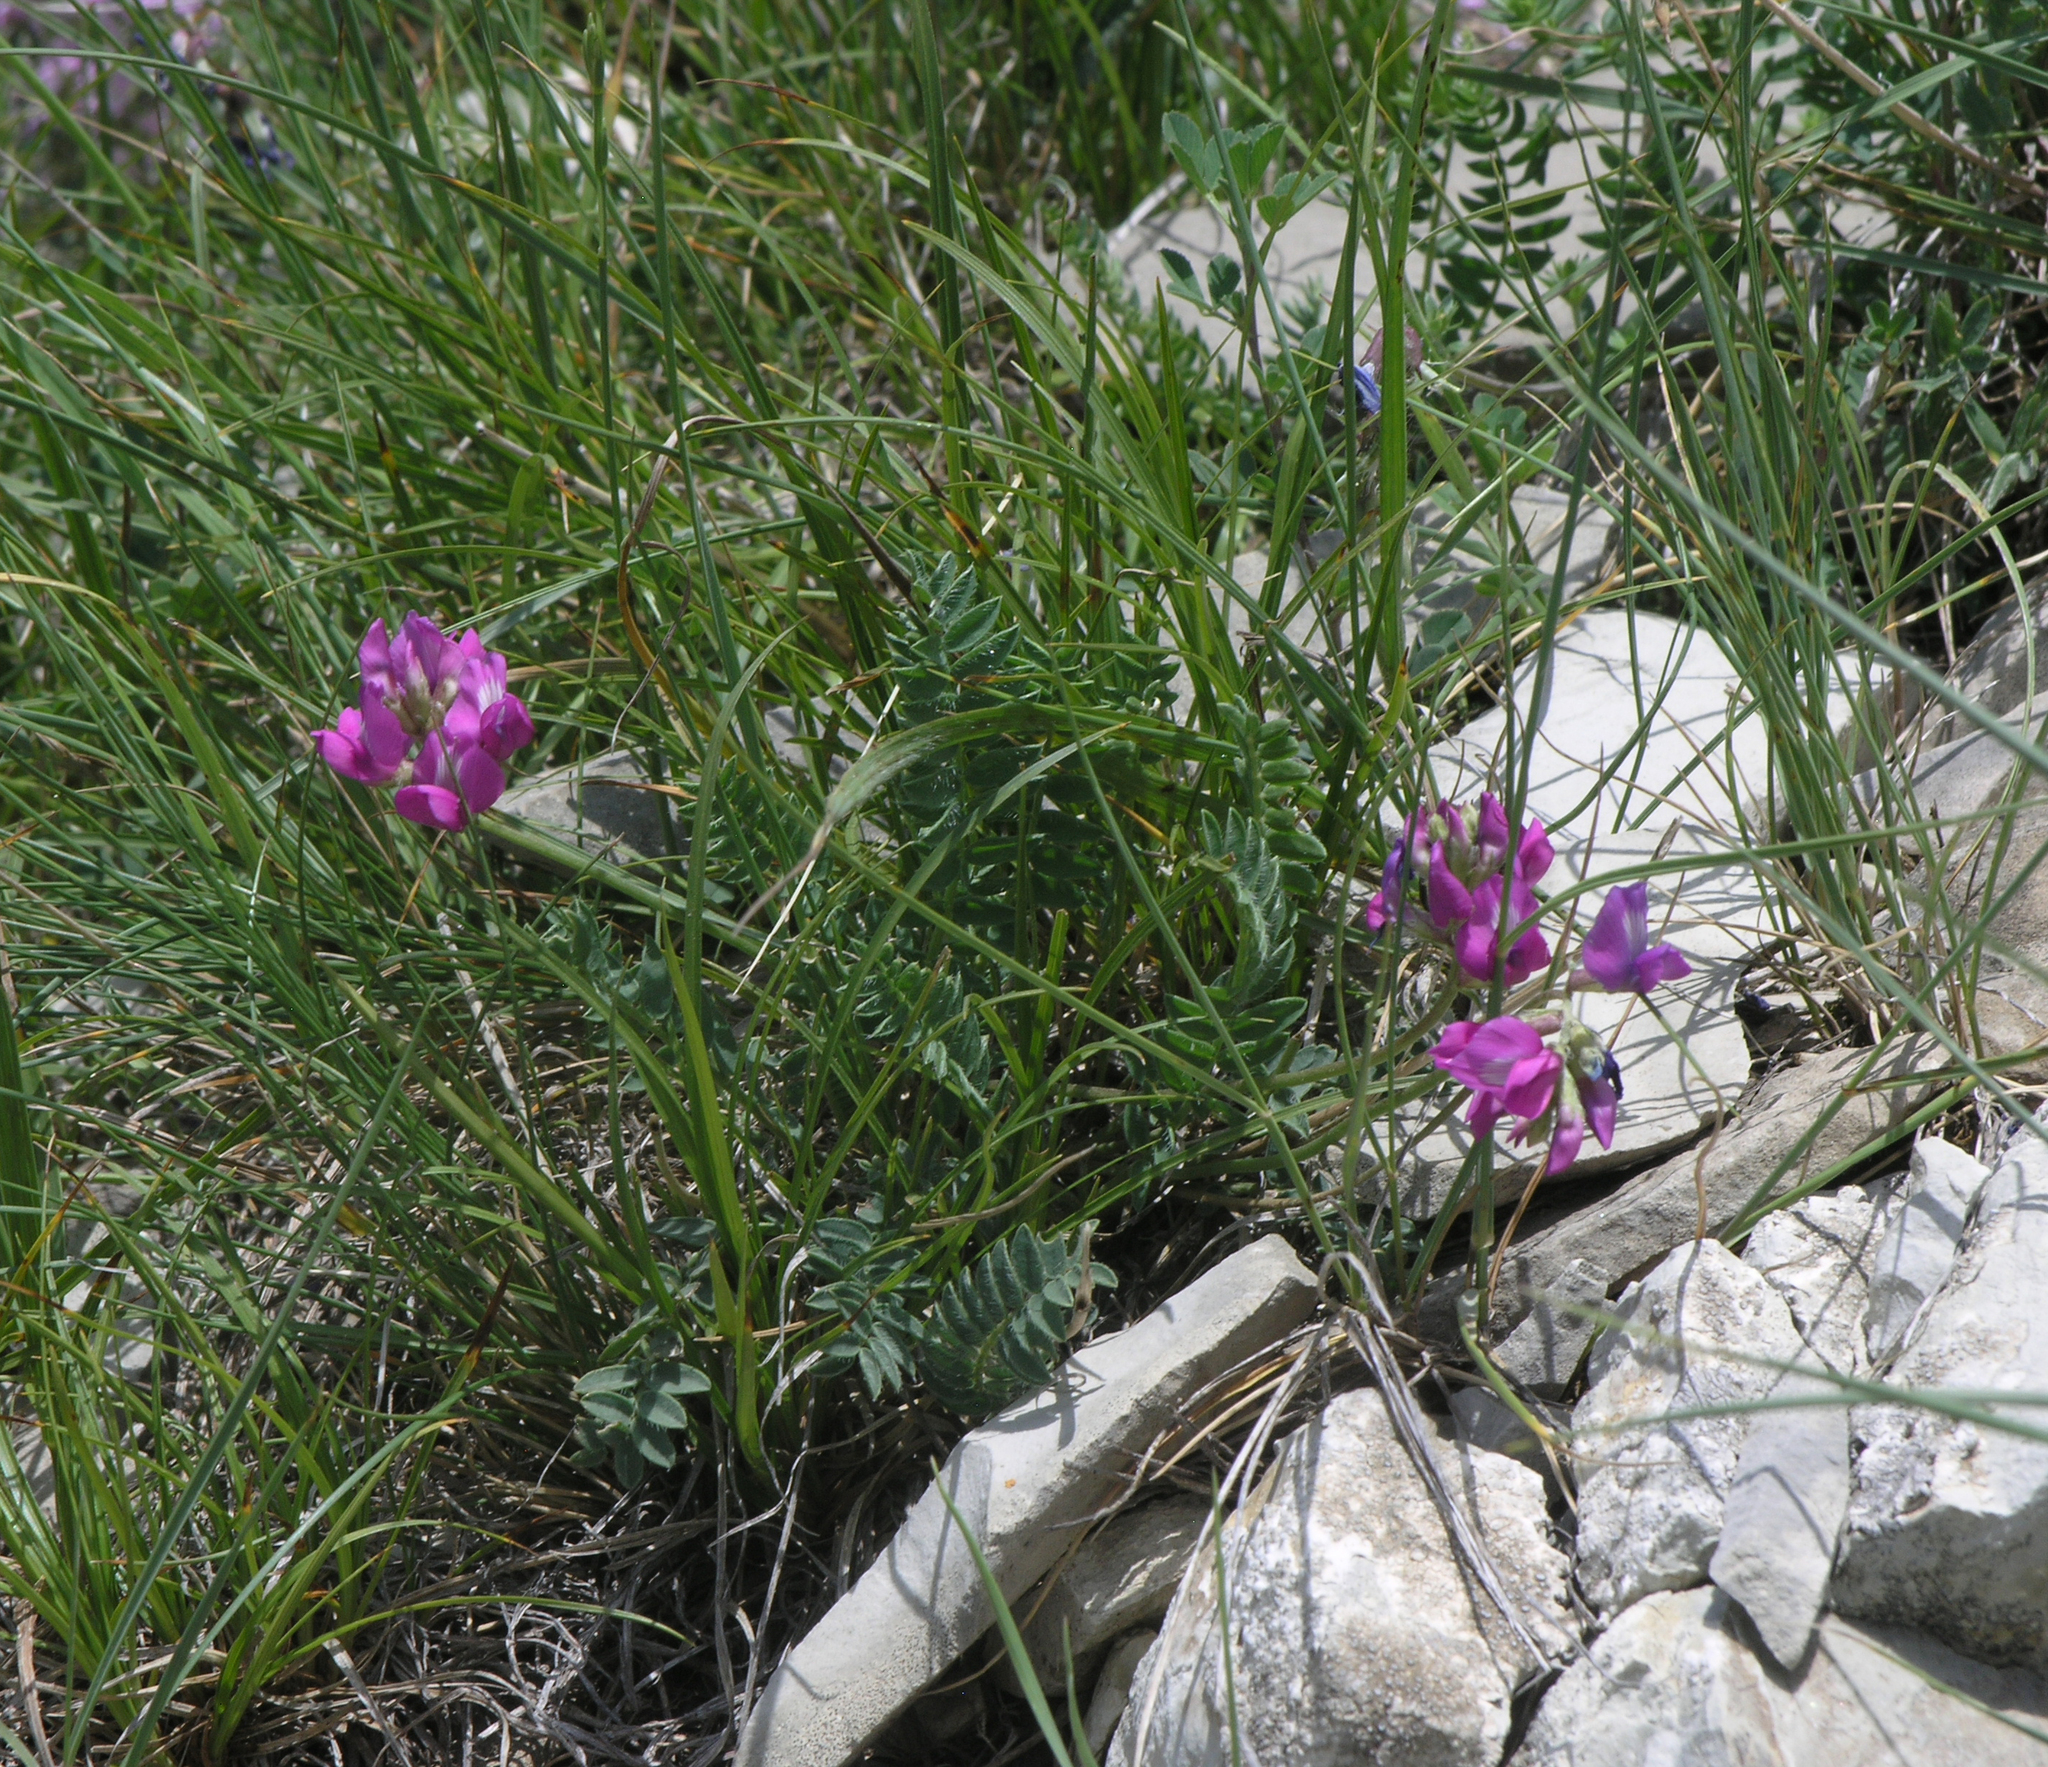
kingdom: Plantae
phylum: Tracheophyta
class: Magnoliopsida
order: Fabales
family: Fabaceae
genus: Oxytropis
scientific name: Oxytropis lapponica
